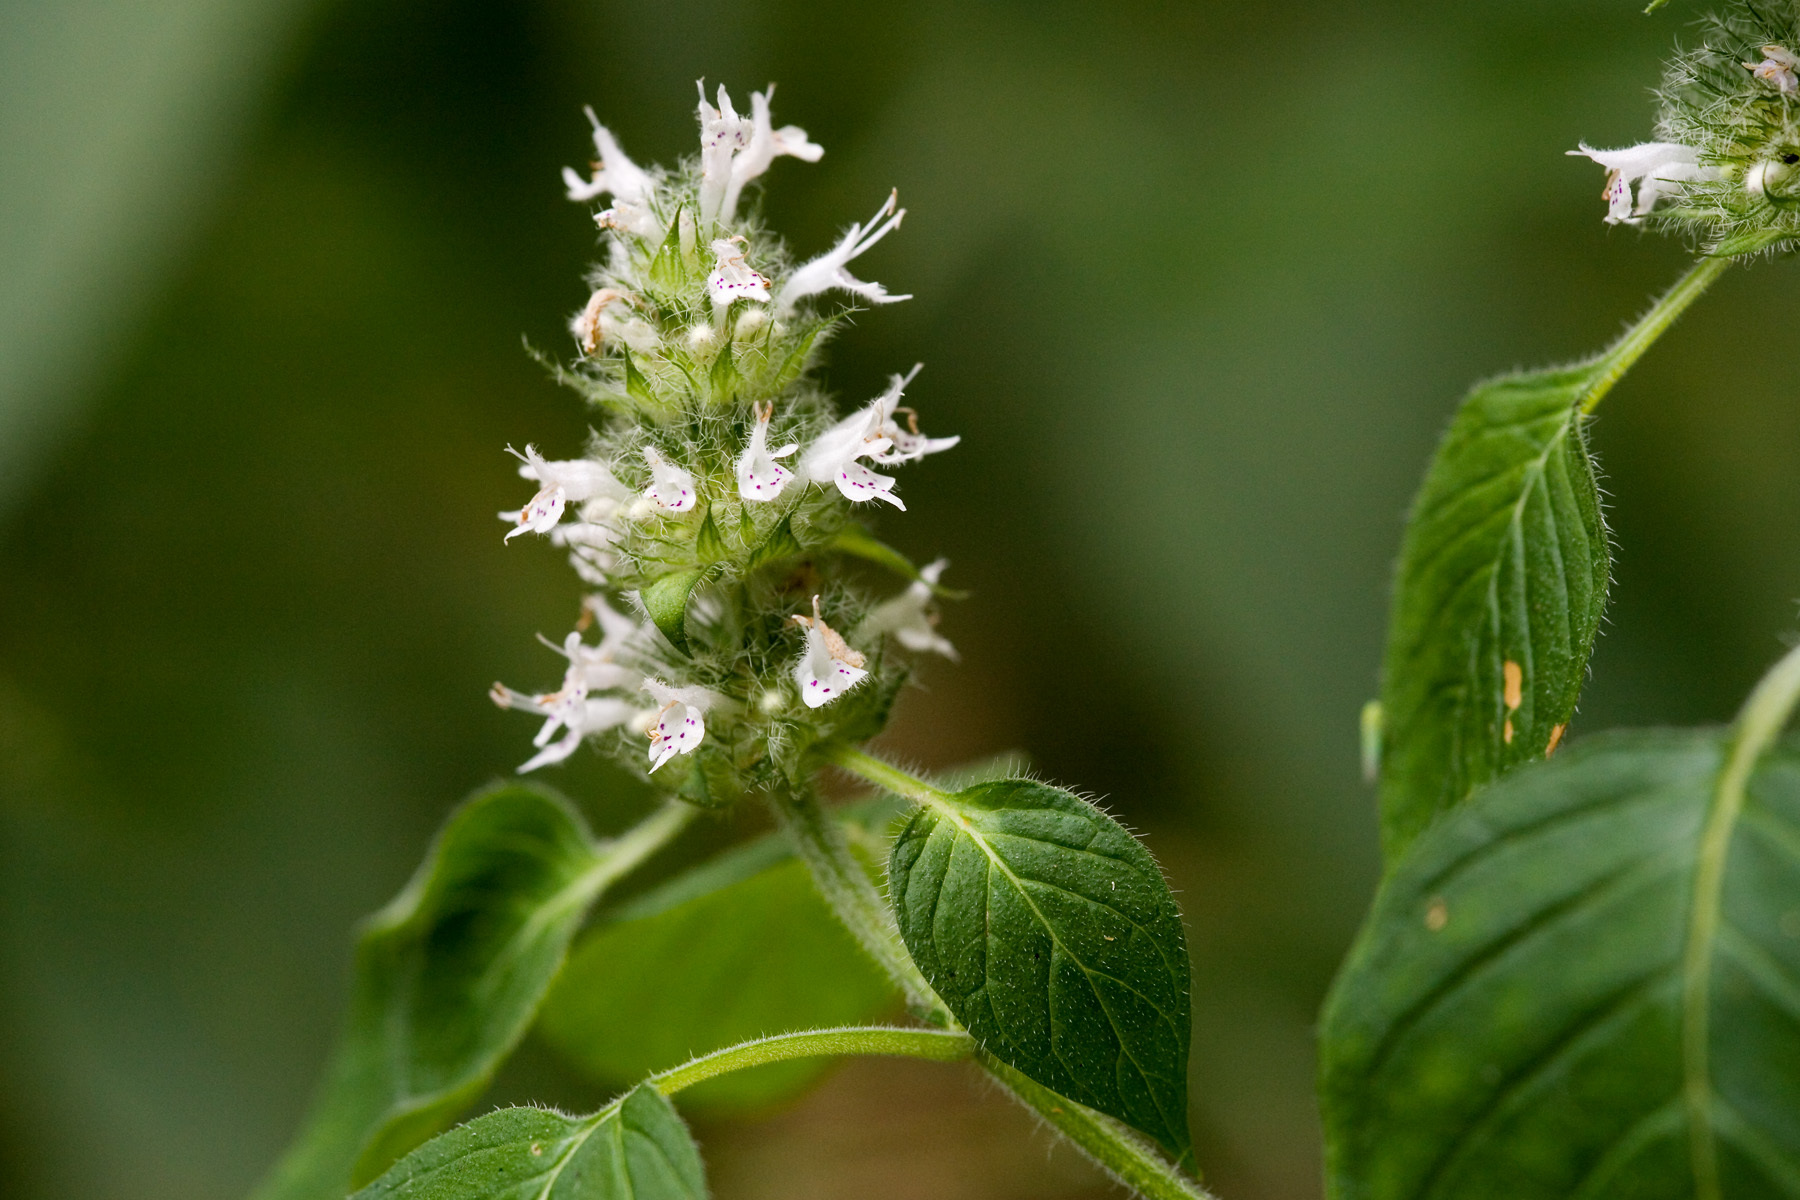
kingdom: Plantae
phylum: Tracheophyta
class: Magnoliopsida
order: Lamiales
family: Lamiaceae
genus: Blephilia
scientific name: Blephilia hirsuta
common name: Hairy blephilia
